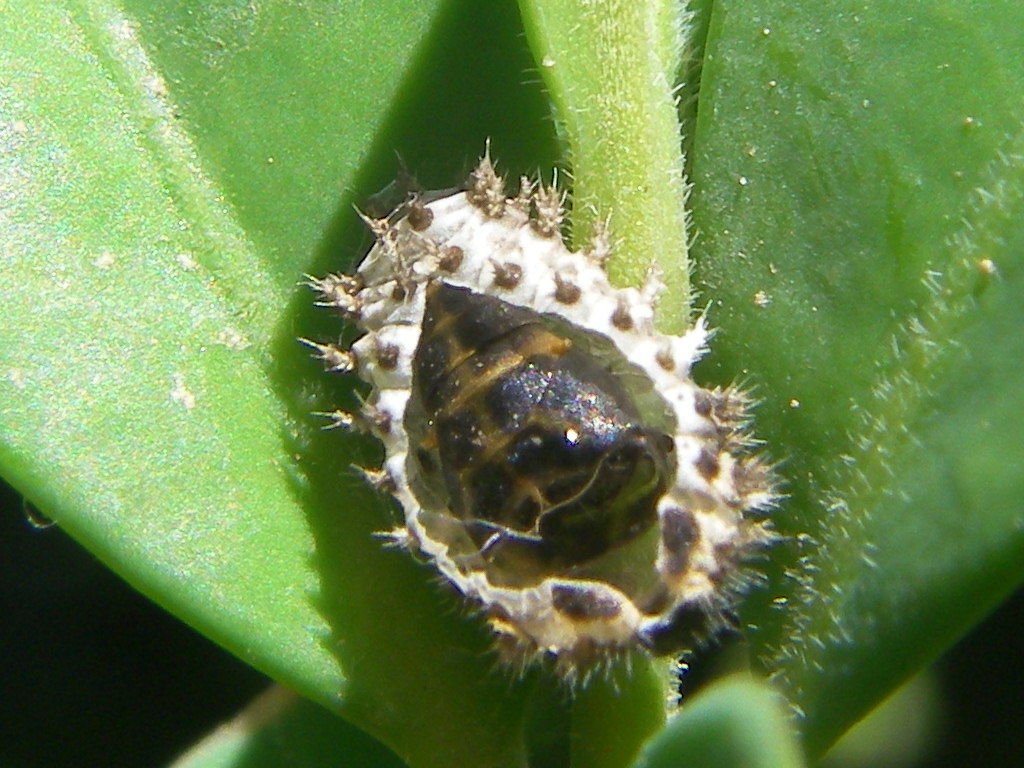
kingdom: Animalia
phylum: Arthropoda
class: Insecta
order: Coleoptera
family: Coccinellidae
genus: Brumus
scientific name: Brumus quadripustulatus
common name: Ladybird beetle
